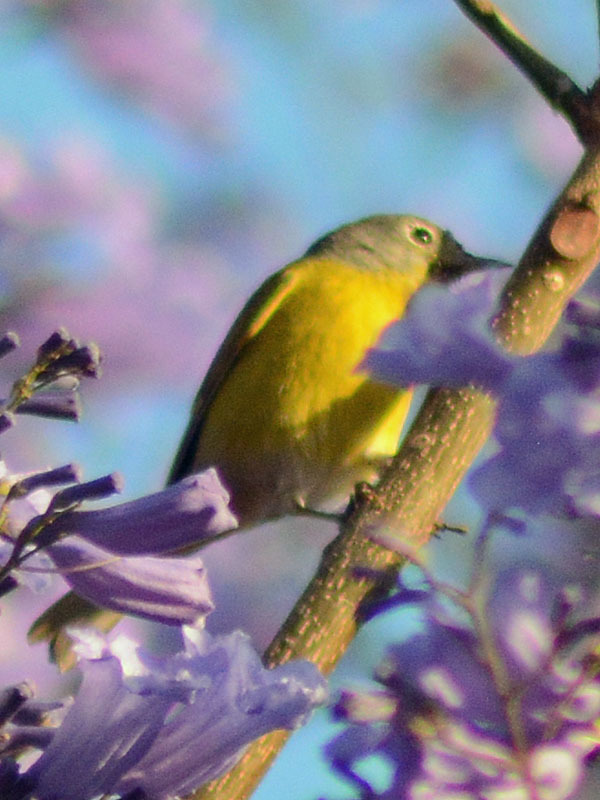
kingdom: Animalia
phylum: Chordata
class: Aves
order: Passeriformes
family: Parulidae
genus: Leiothlypis
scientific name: Leiothlypis ruficapilla
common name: Nashville warbler
